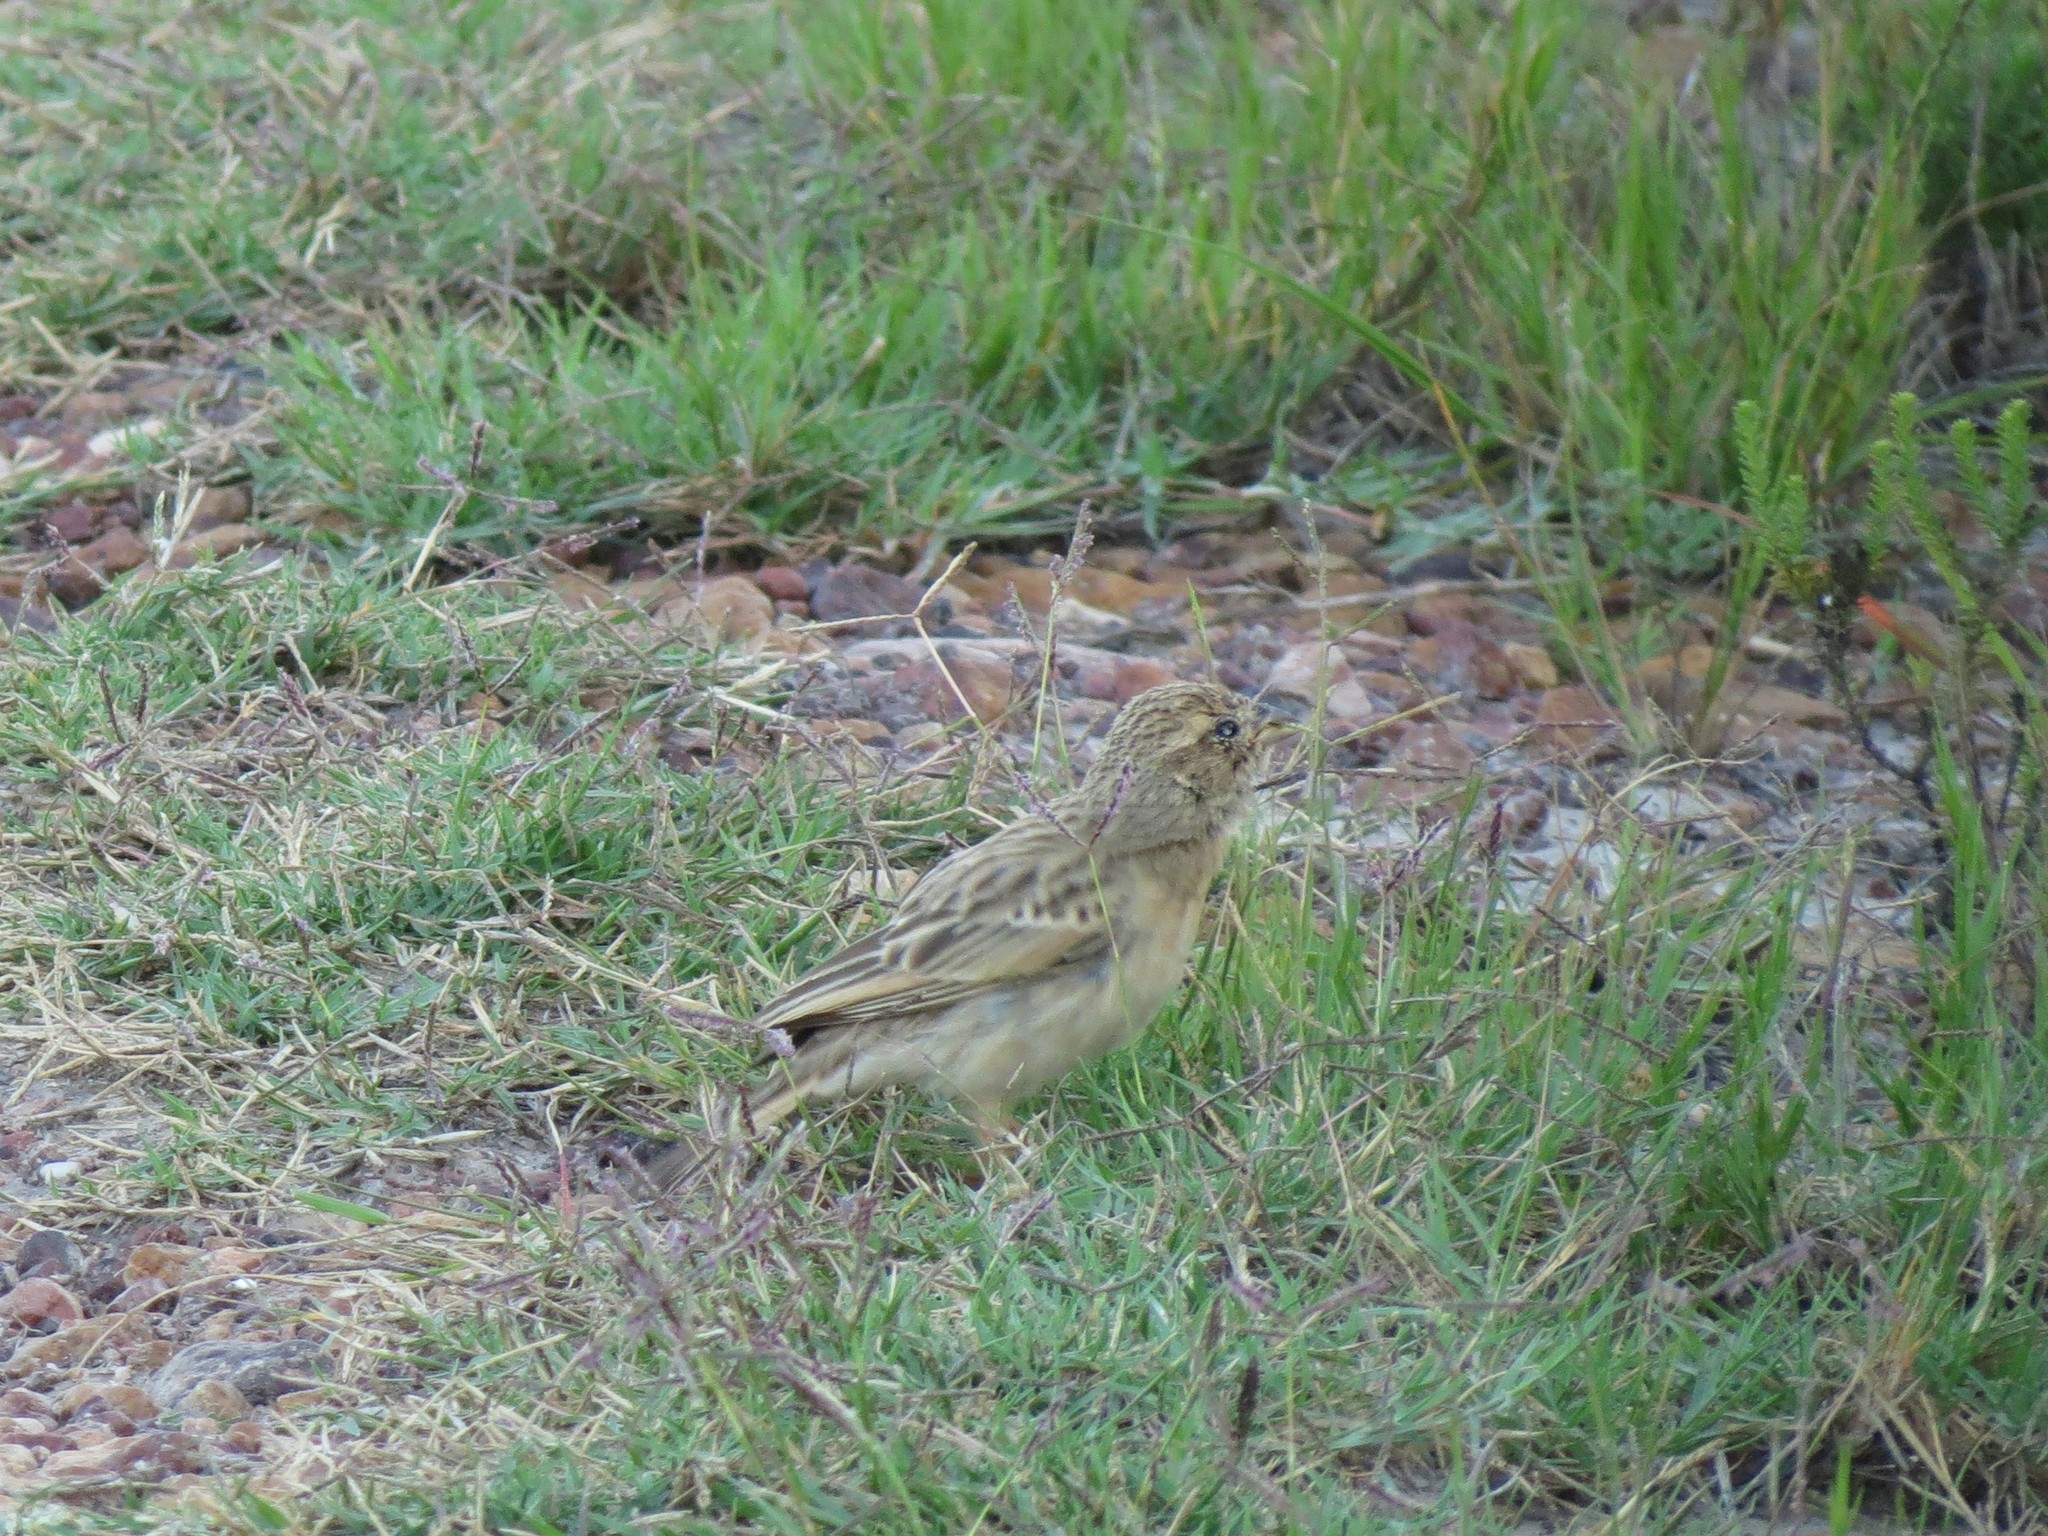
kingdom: Animalia
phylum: Chordata
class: Aves
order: Passeriformes
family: Emberizidae
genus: Emberiza
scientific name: Emberiza impetuani
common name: Lark-like bunting
